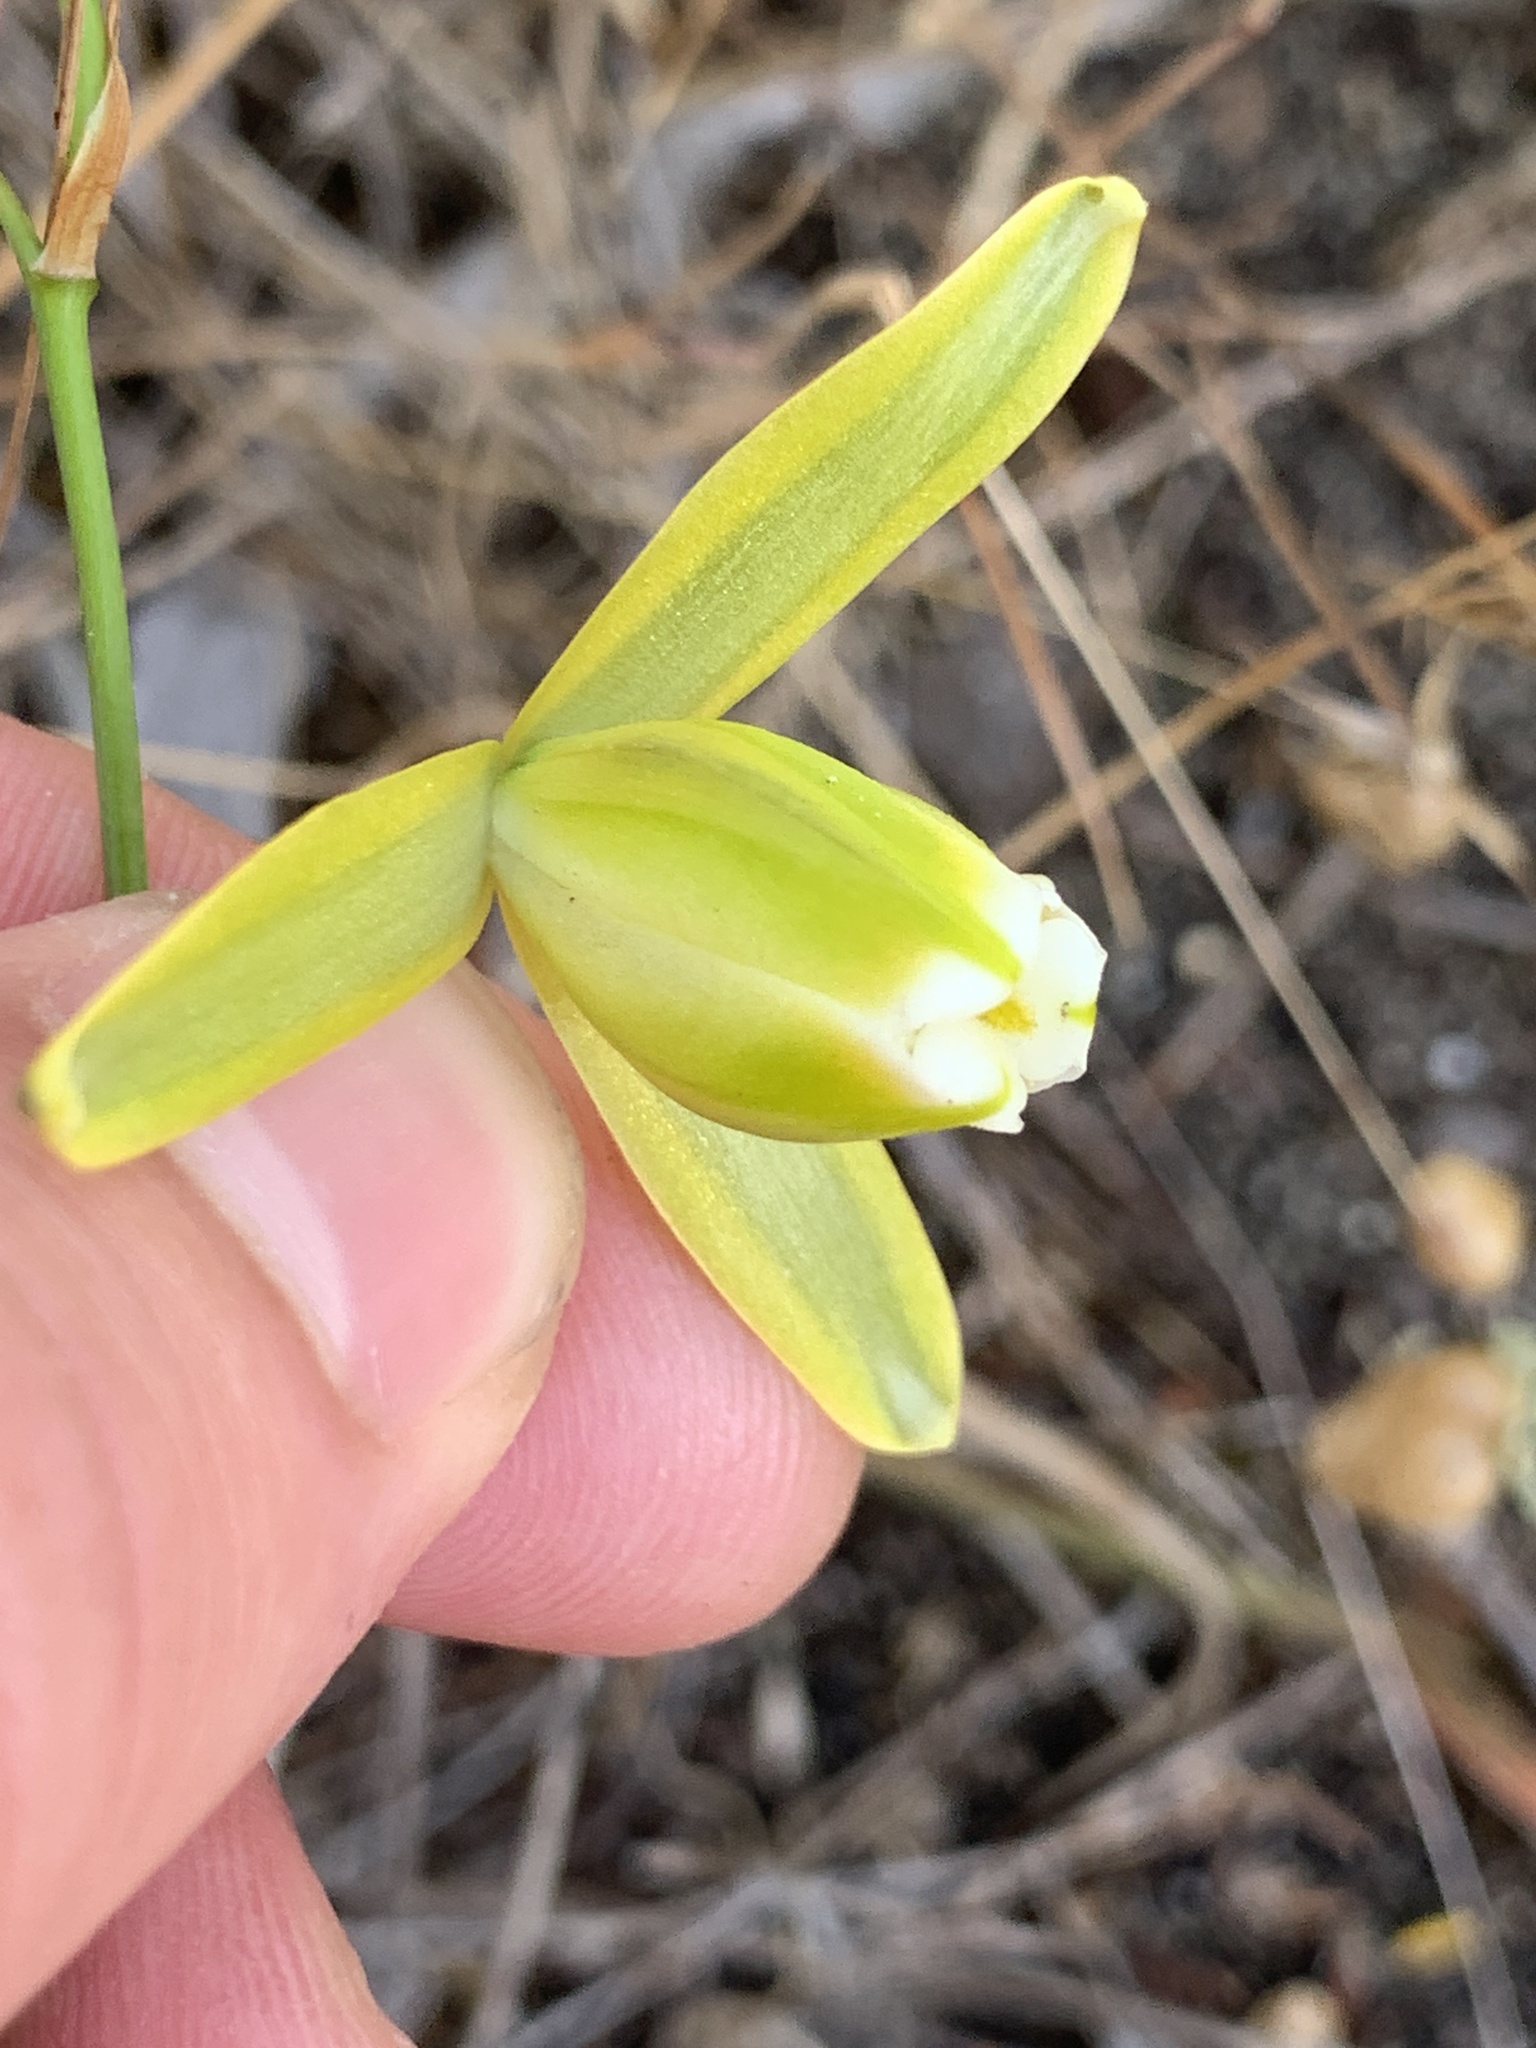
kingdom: Plantae
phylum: Tracheophyta
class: Liliopsida
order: Asparagales
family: Asparagaceae
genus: Albuca
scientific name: Albuca cooperi
